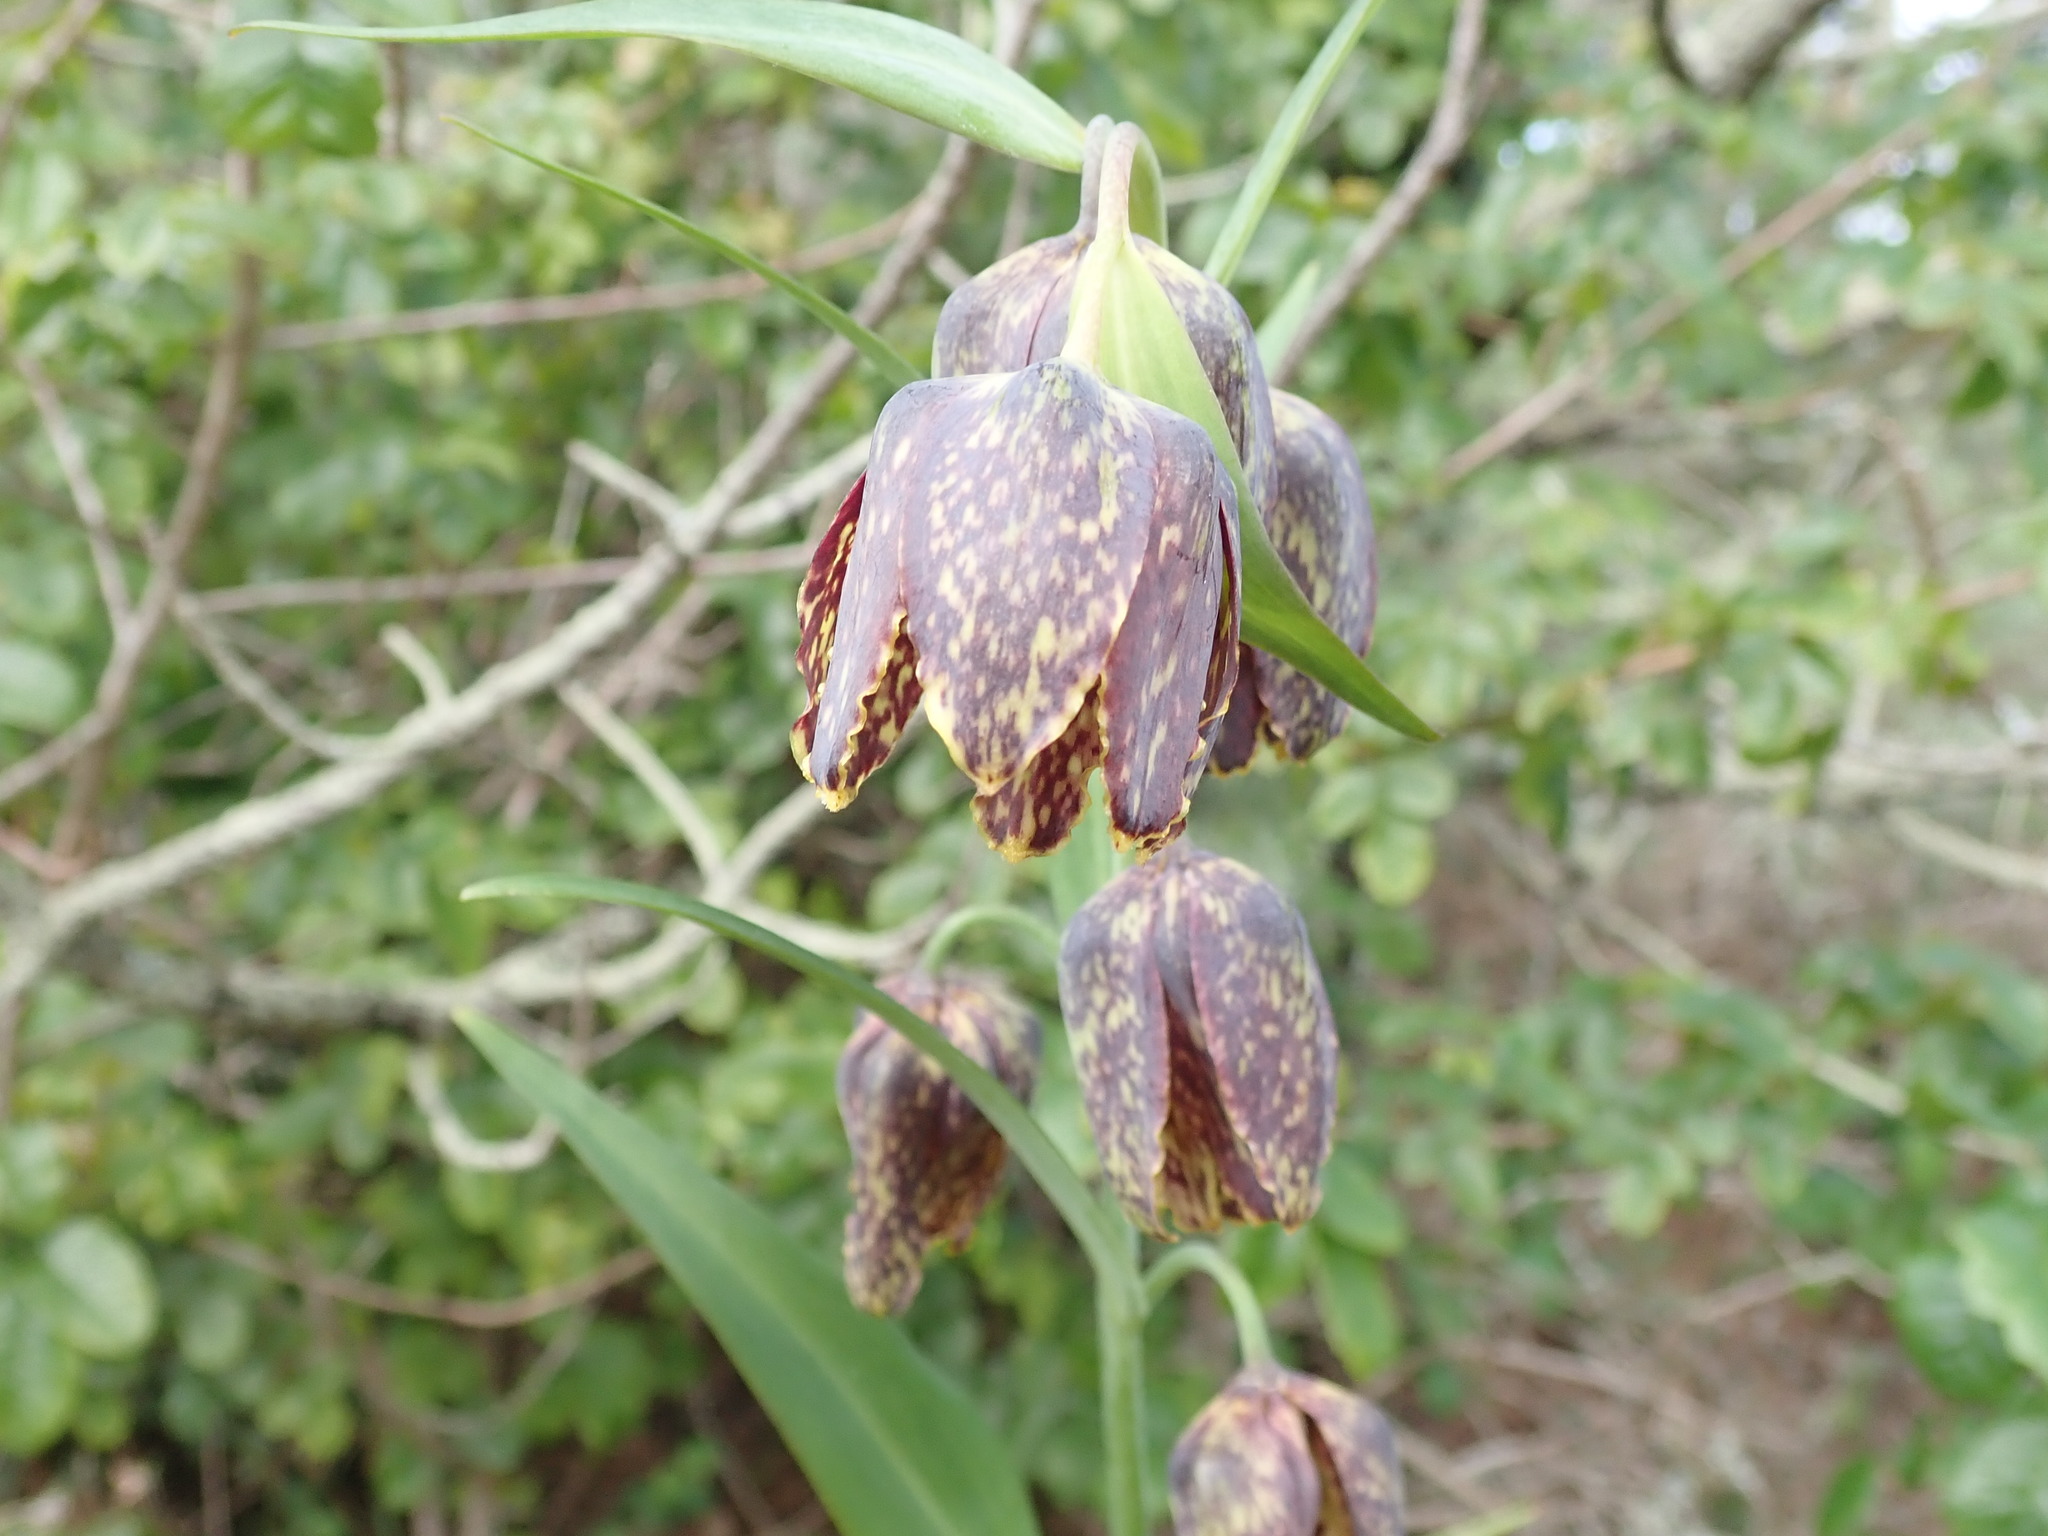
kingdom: Plantae
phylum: Tracheophyta
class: Liliopsida
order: Liliales
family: Liliaceae
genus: Fritillaria
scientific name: Fritillaria affinis
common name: Ojai fritillary
